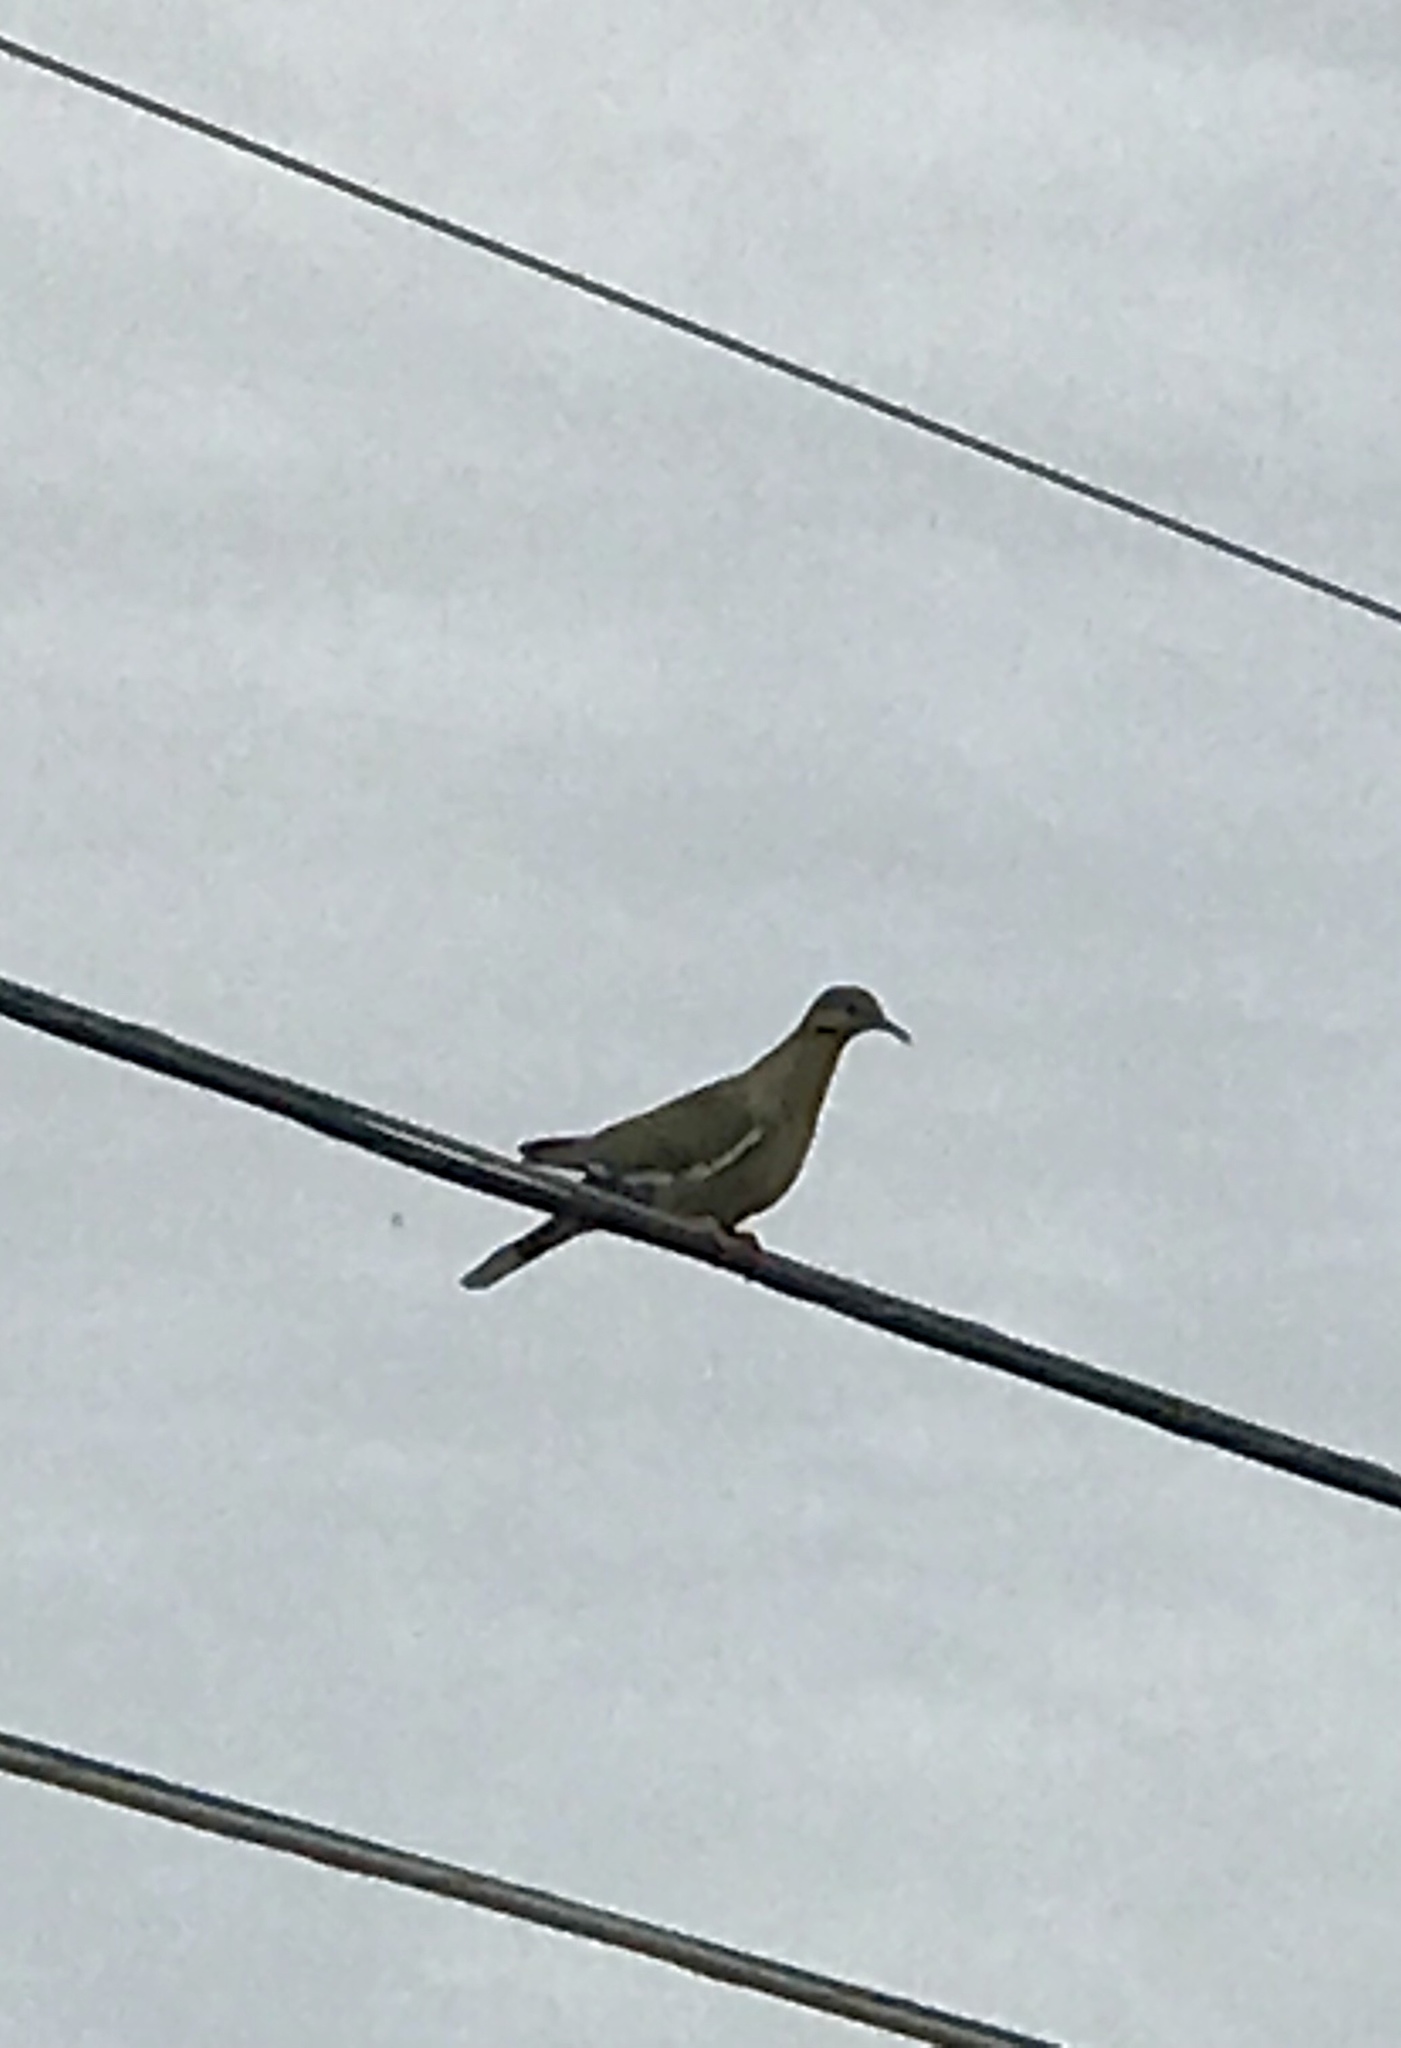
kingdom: Animalia
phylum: Chordata
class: Aves
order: Columbiformes
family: Columbidae
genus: Zenaida
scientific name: Zenaida asiatica
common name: White-winged dove
